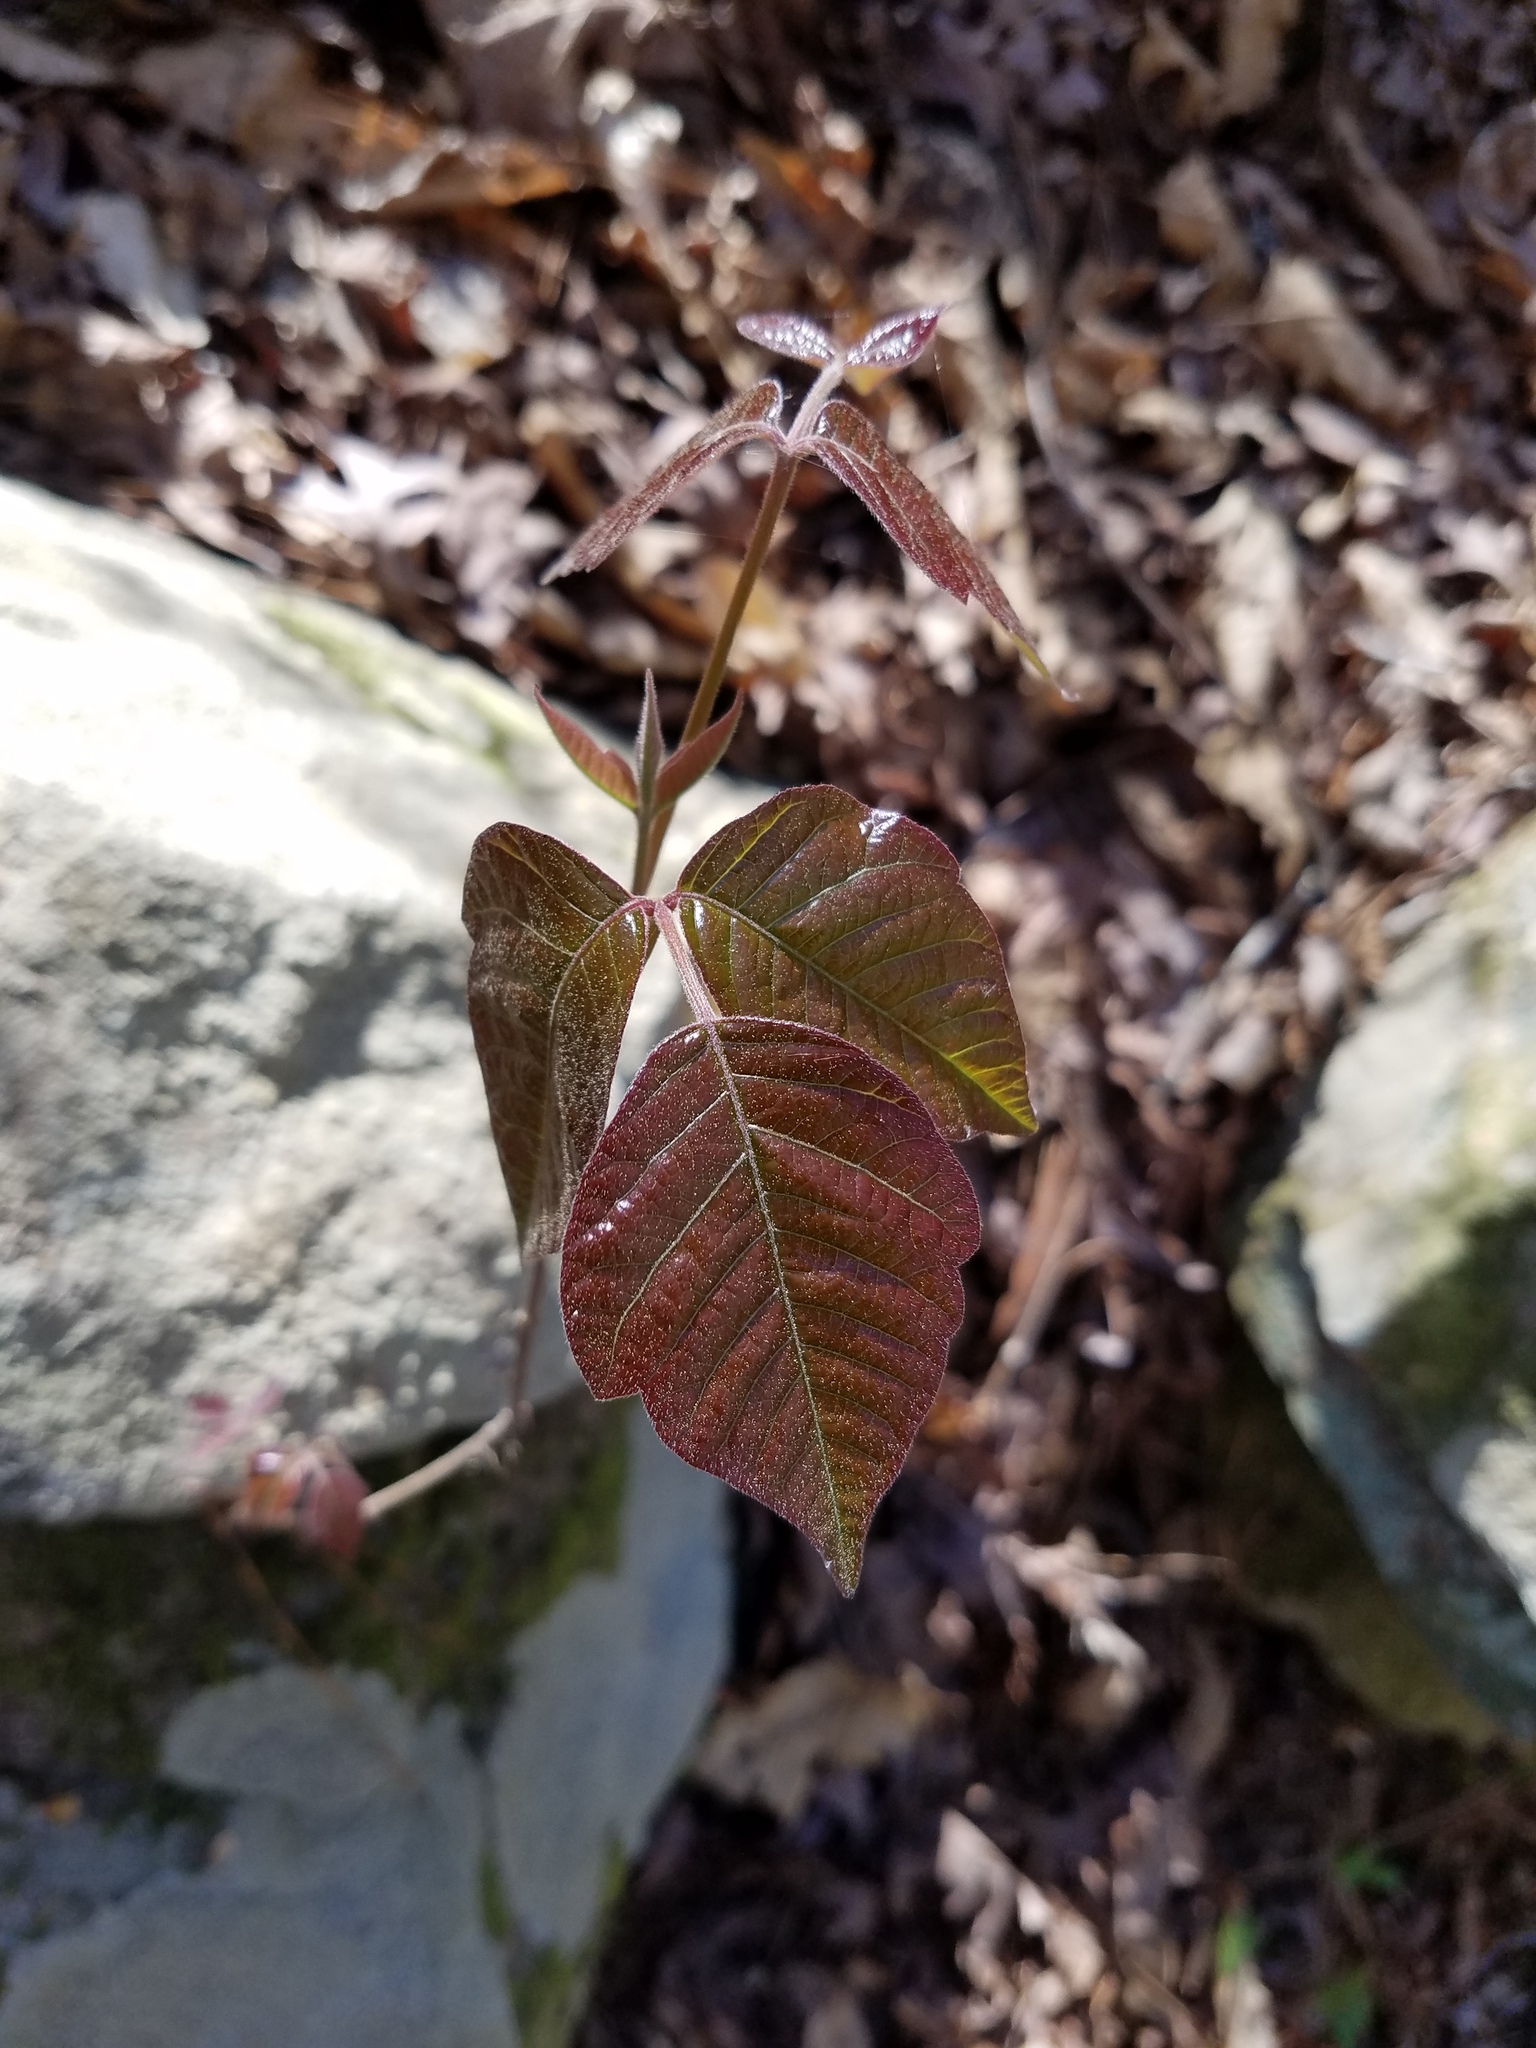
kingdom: Plantae
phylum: Tracheophyta
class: Magnoliopsida
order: Sapindales
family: Anacardiaceae
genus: Toxicodendron
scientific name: Toxicodendron radicans
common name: Poison ivy
